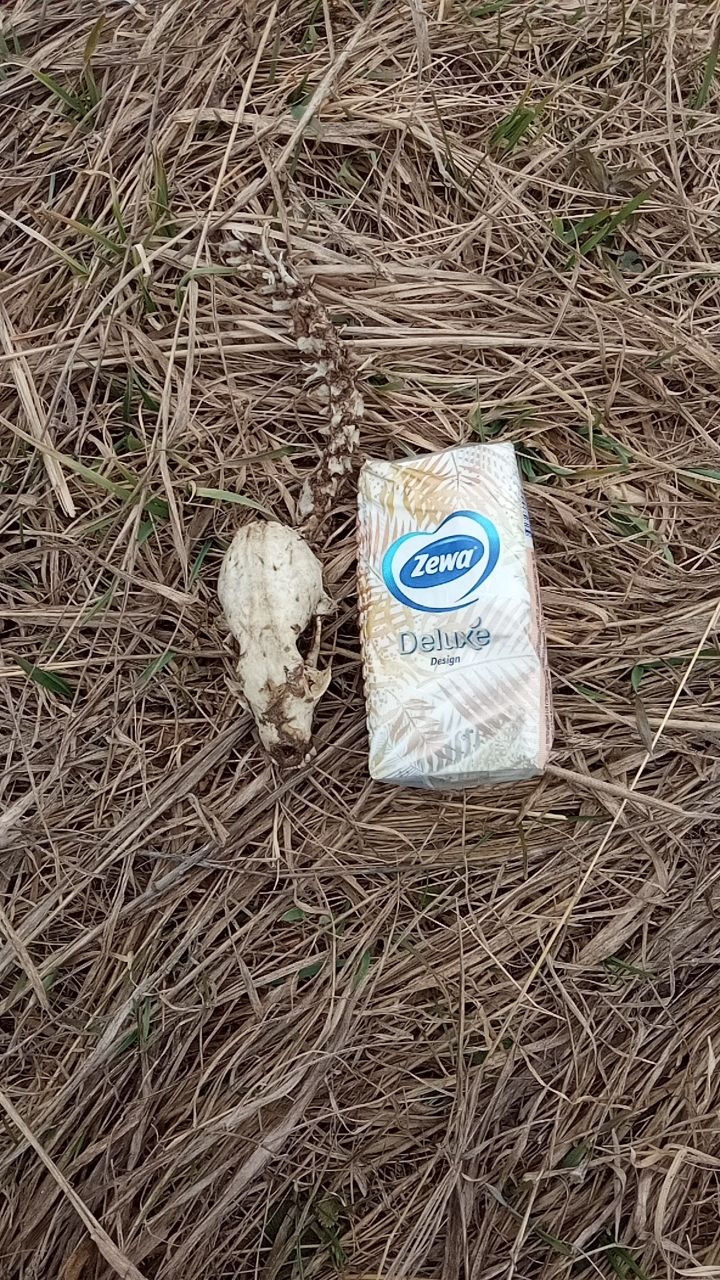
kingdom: Animalia
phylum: Chordata
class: Mammalia
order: Carnivora
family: Mustelidae
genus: Martes
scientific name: Martes martes
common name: European pine marten
